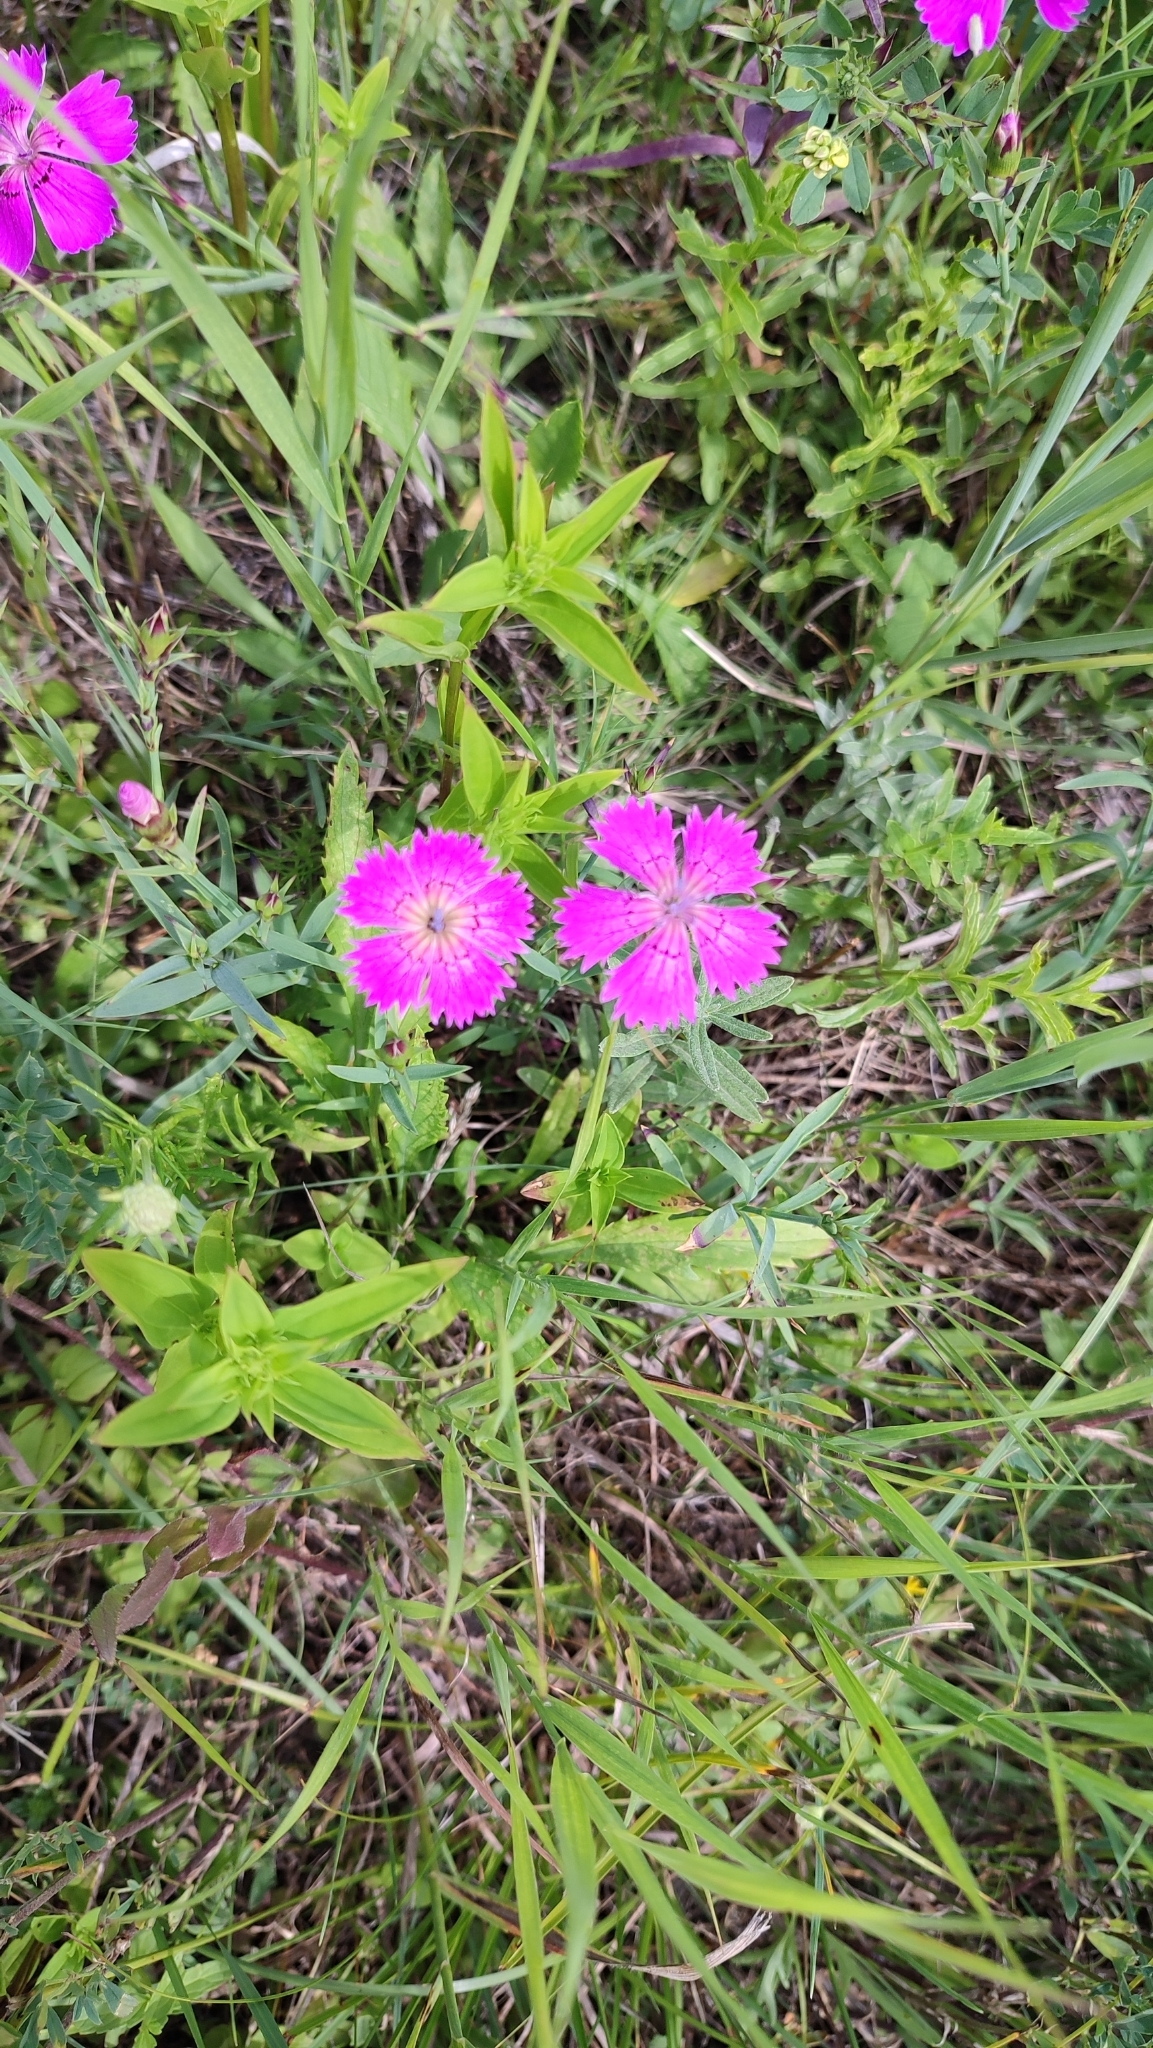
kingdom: Plantae
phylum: Tracheophyta
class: Magnoliopsida
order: Caryophyllales
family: Caryophyllaceae
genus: Dianthus
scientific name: Dianthus chinensis
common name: Rainbow pink
